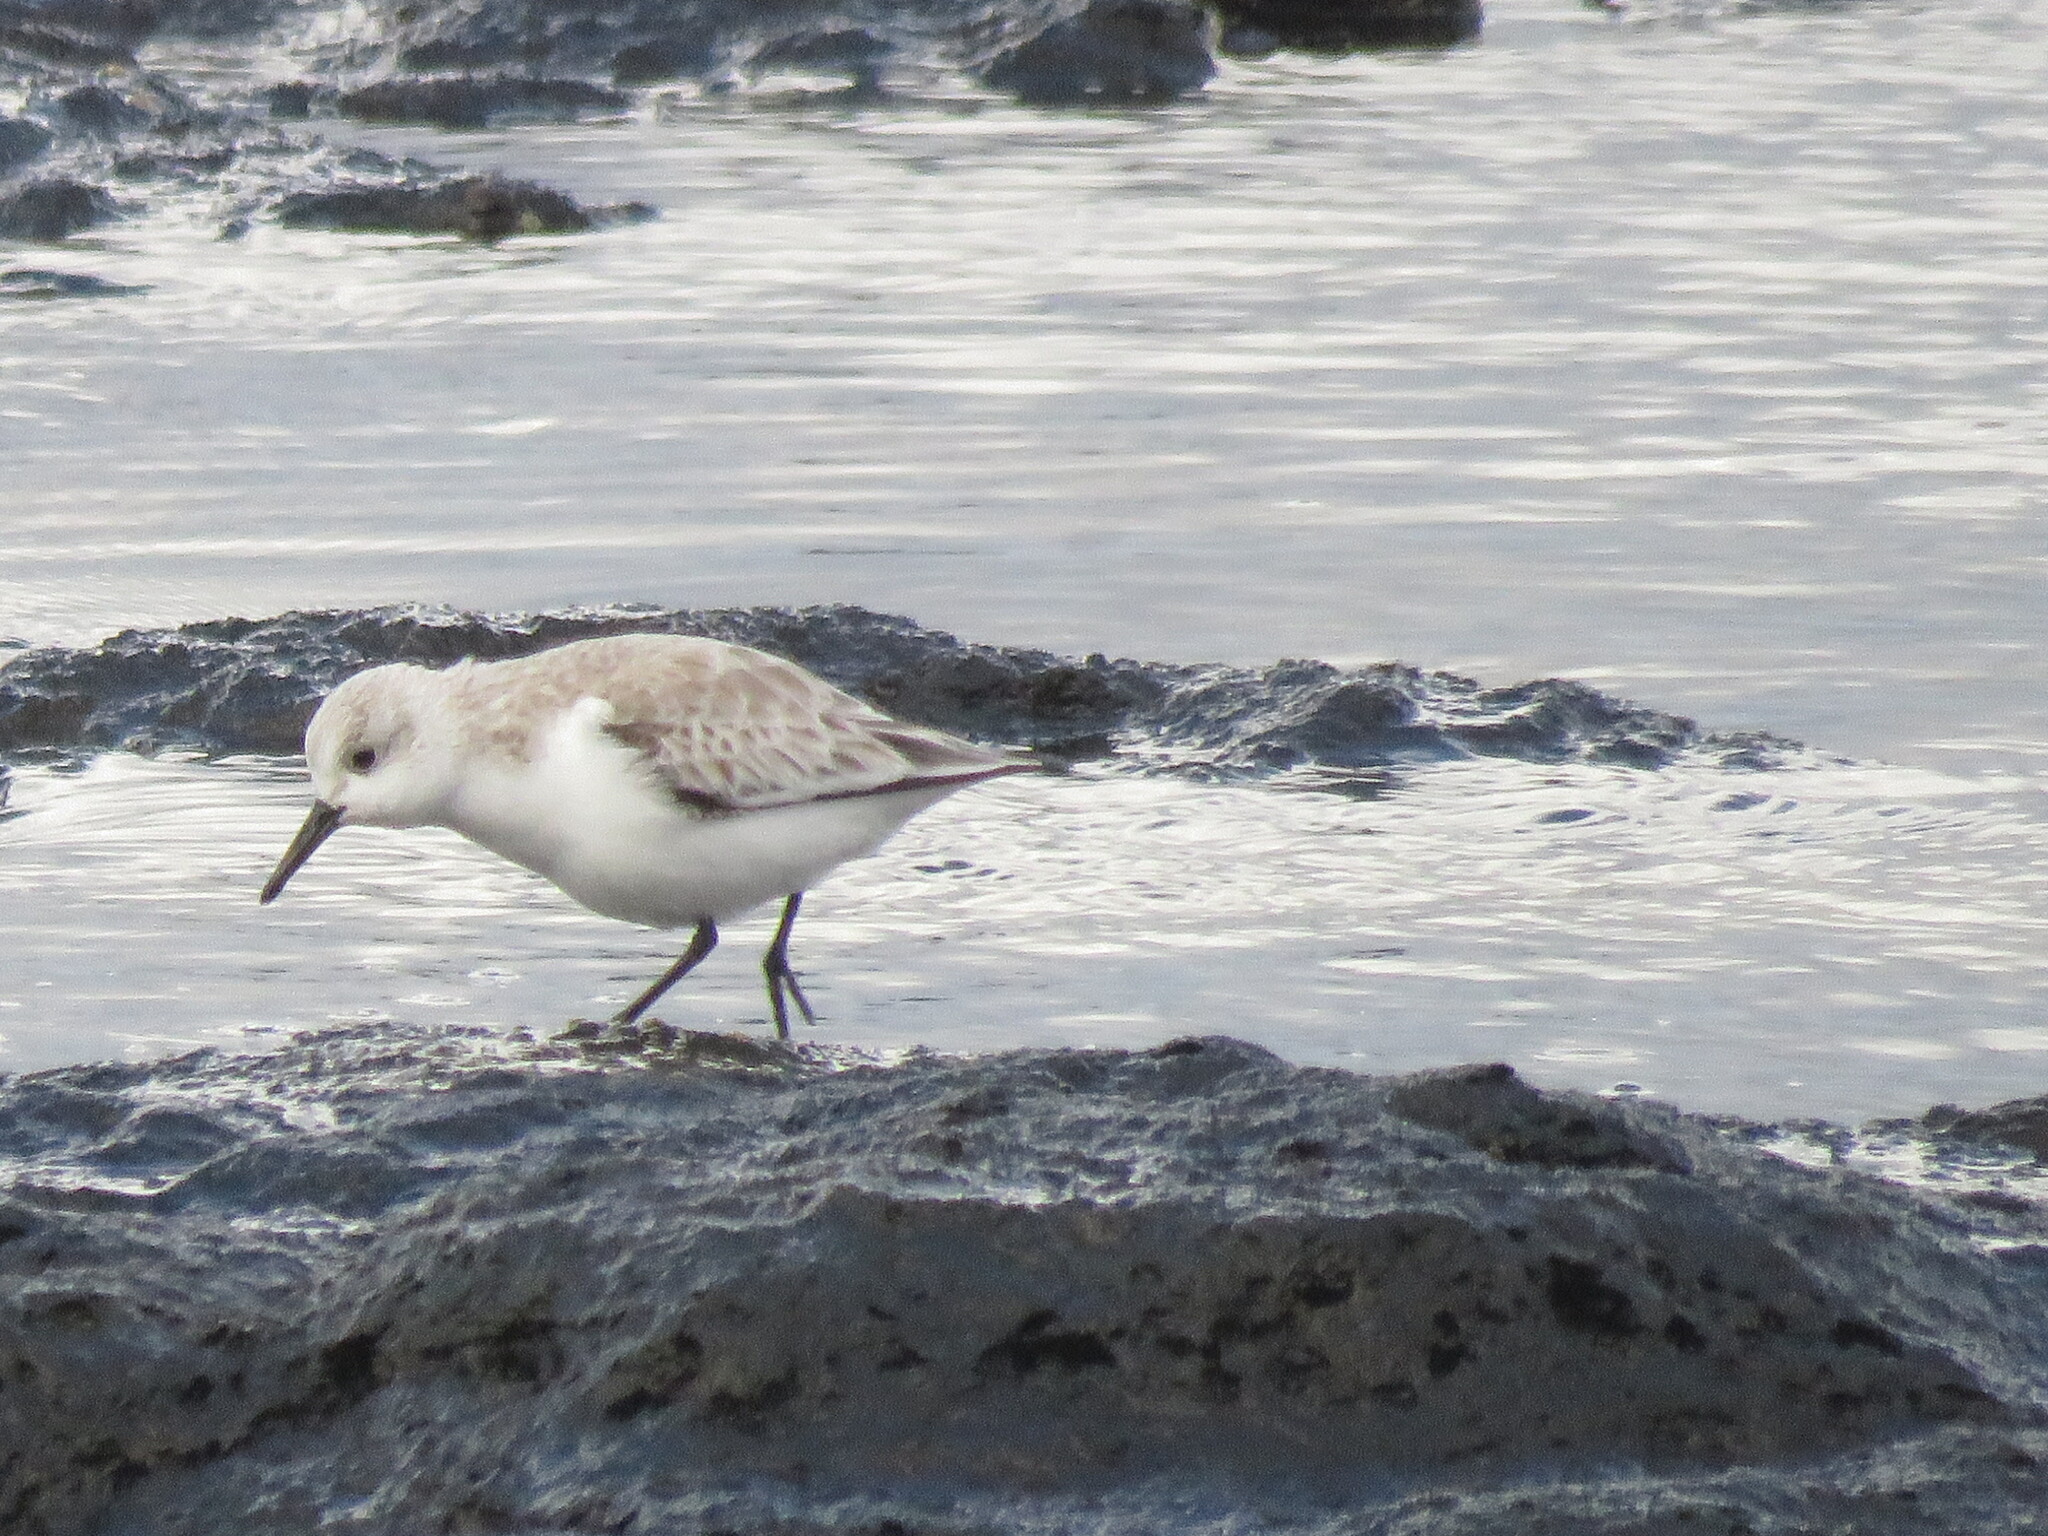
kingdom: Animalia
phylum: Chordata
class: Aves
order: Charadriiformes
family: Scolopacidae
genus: Calidris
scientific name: Calidris alba
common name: Sanderling
